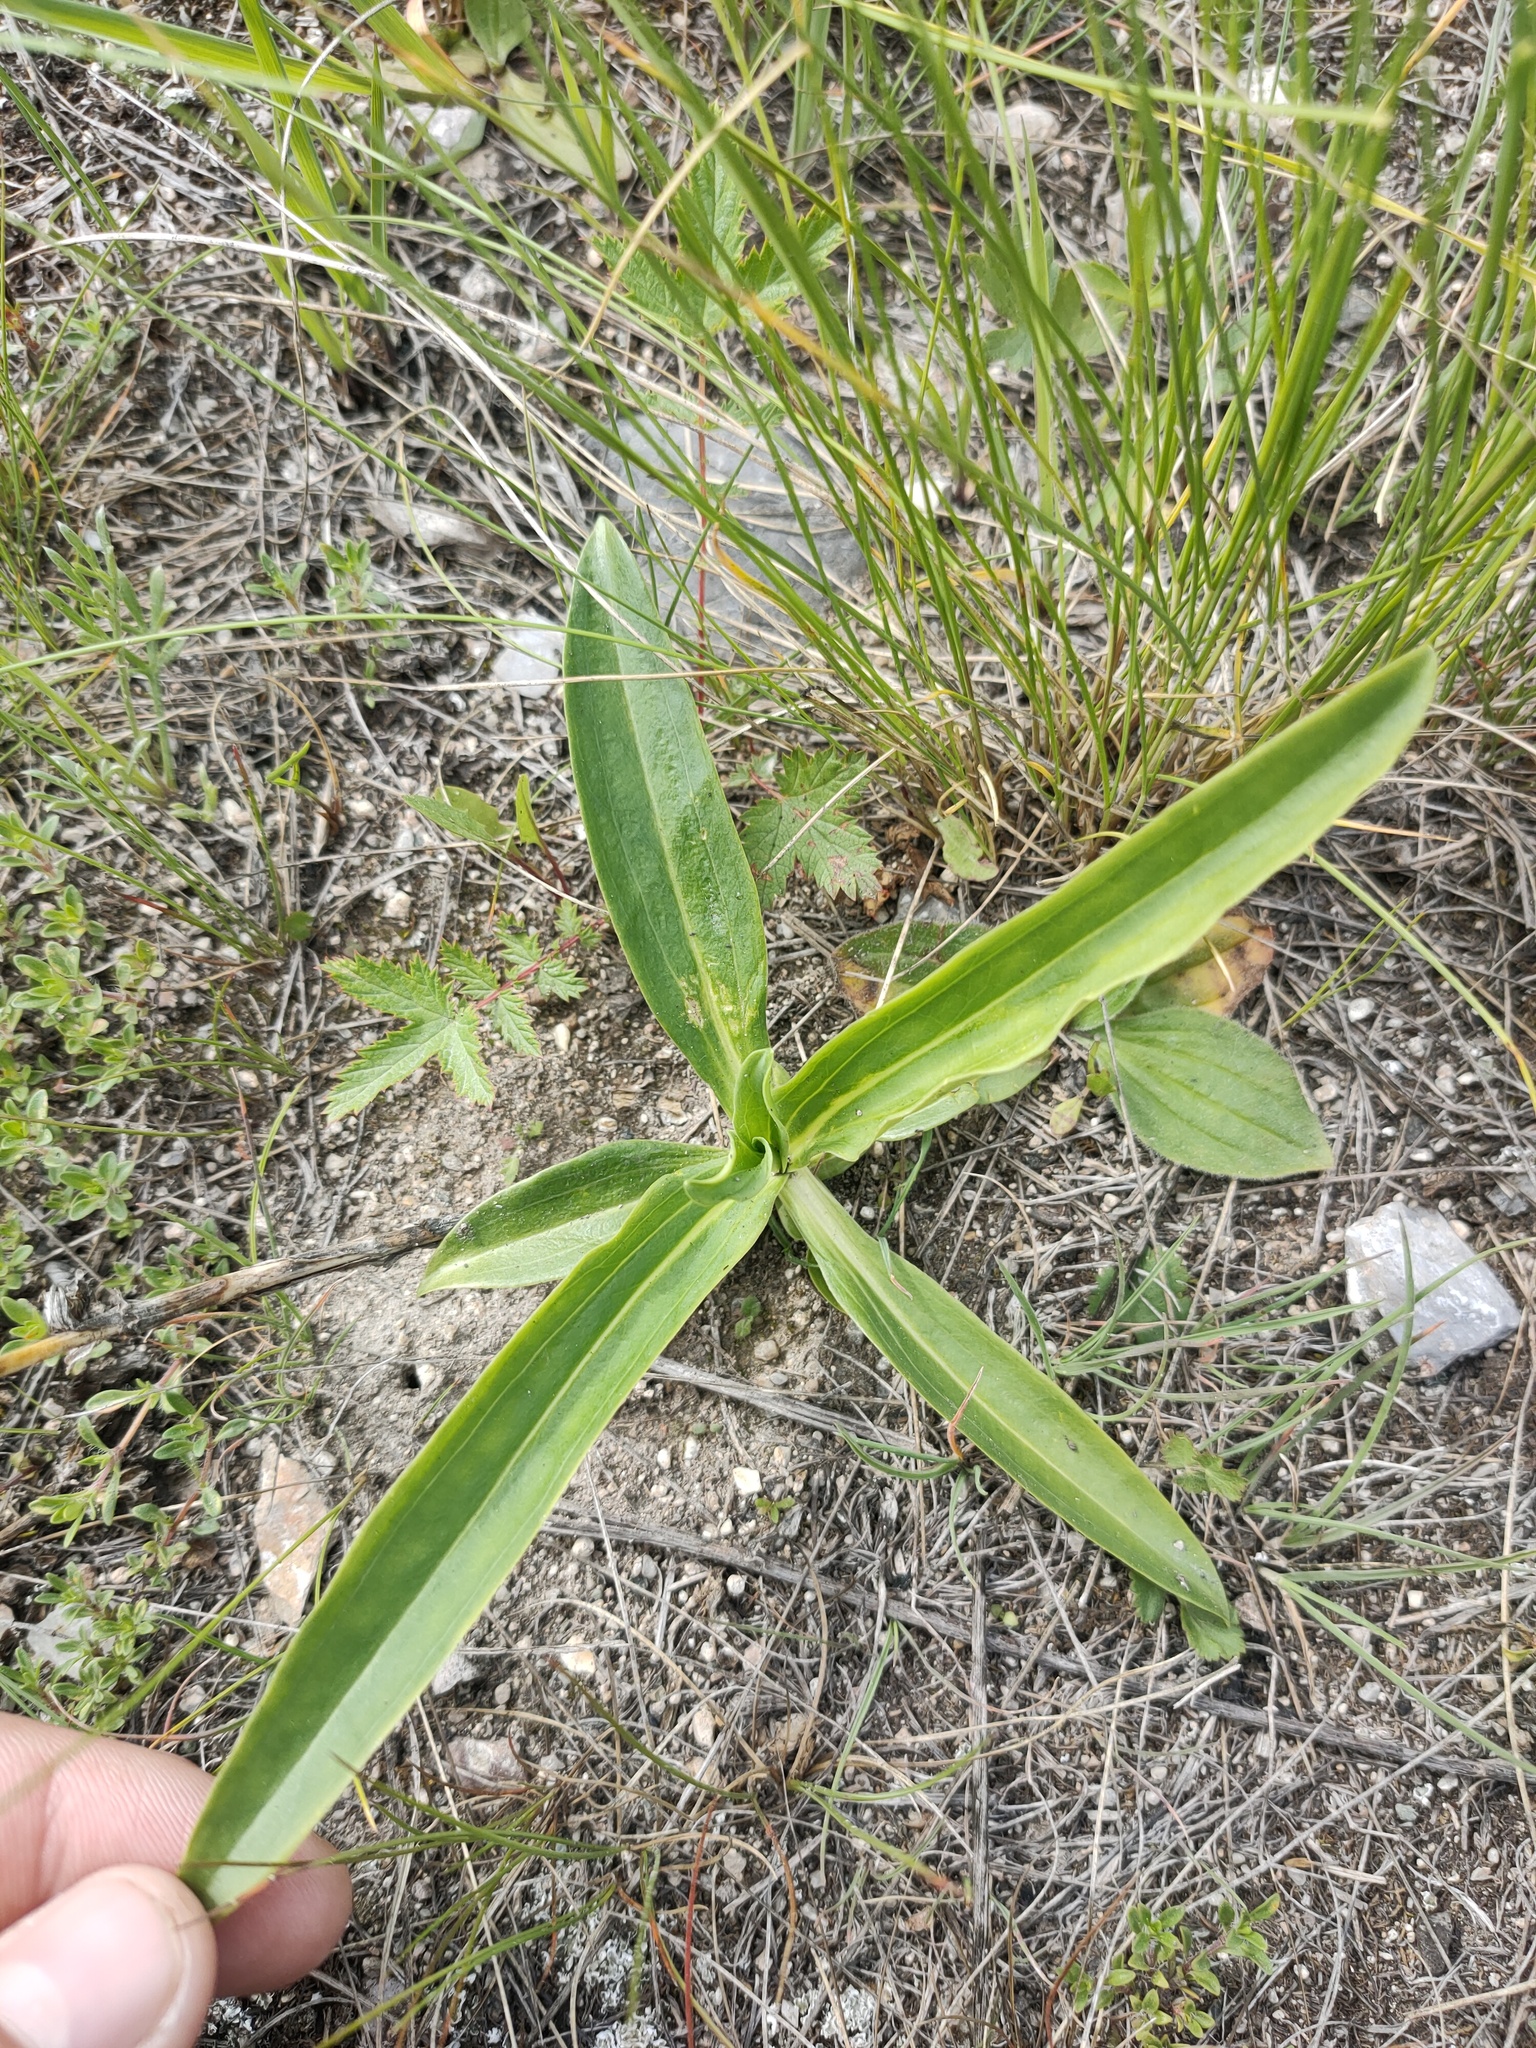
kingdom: Plantae
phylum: Tracheophyta
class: Magnoliopsida
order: Gentianales
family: Gentianaceae
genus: Gentiana
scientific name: Gentiana cruciata
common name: Cross gentian
